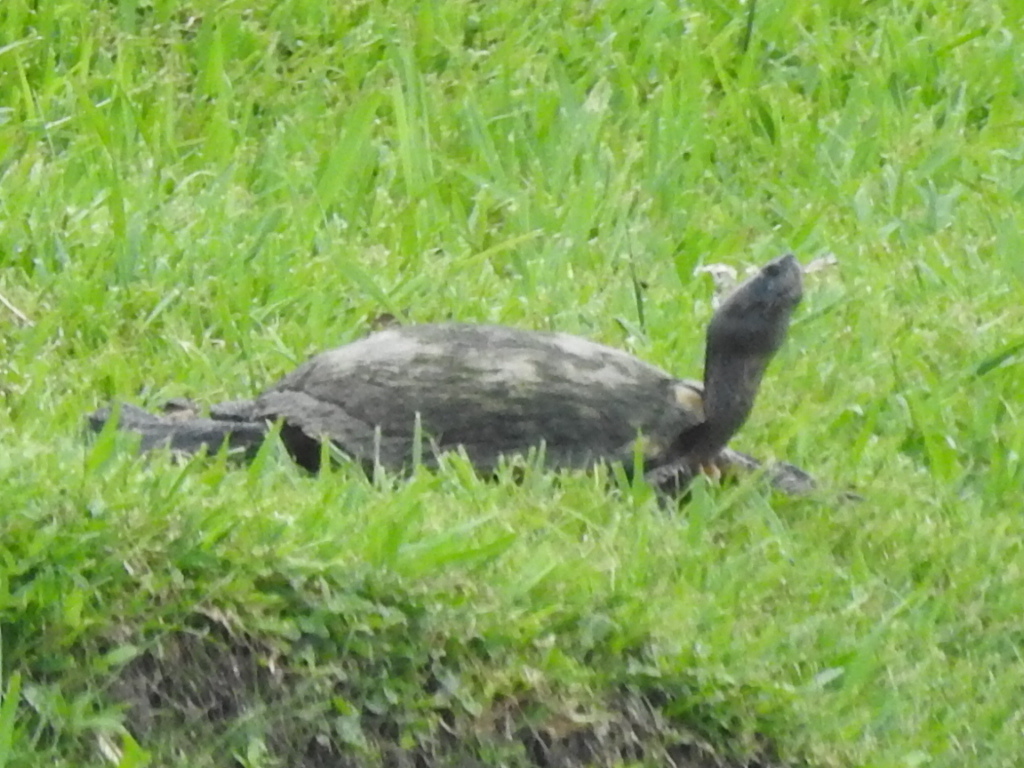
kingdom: Animalia
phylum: Chordata
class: Testudines
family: Emydidae
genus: Trachemys
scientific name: Trachemys scripta
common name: Slider
